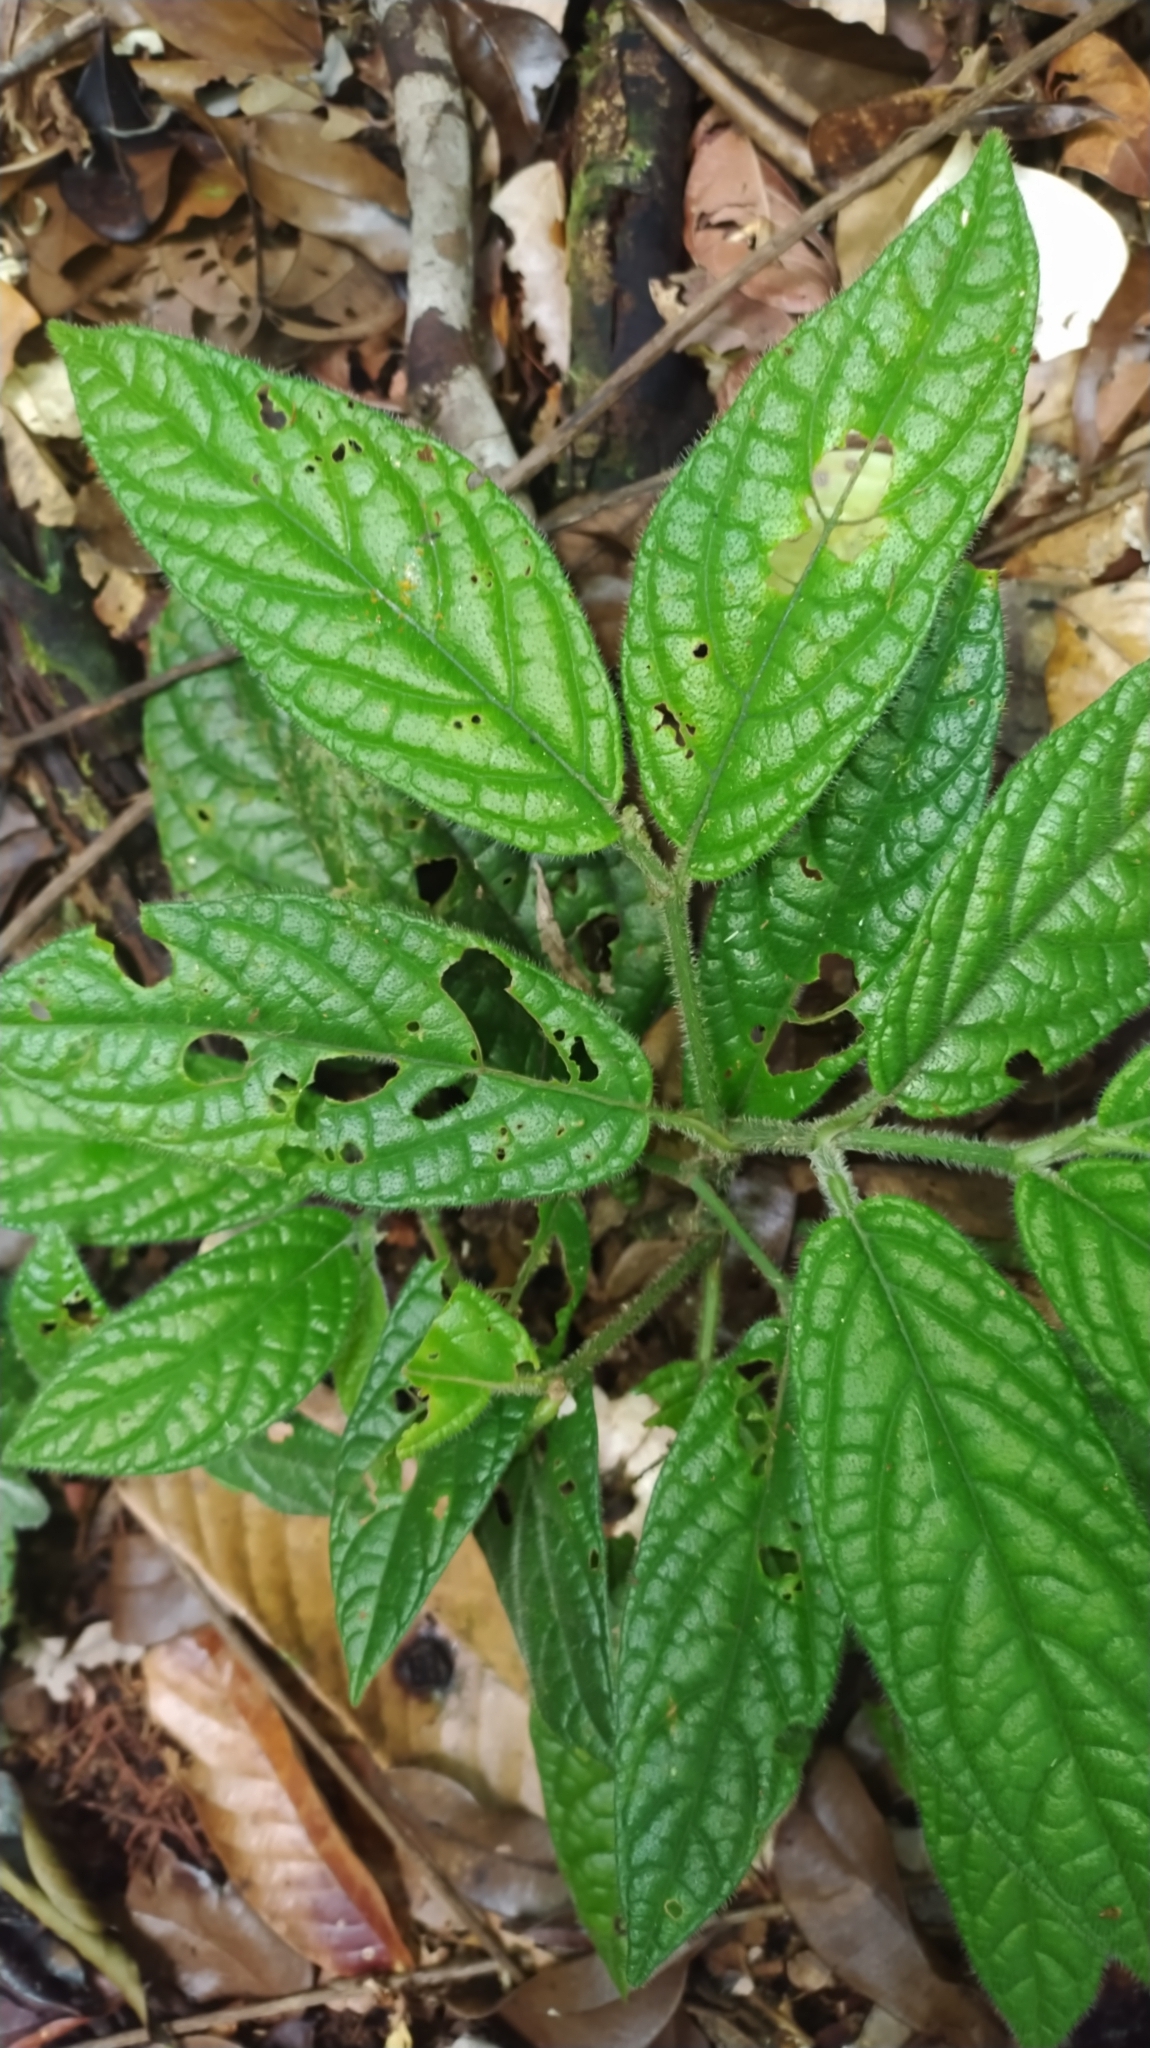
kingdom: Plantae
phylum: Tracheophyta
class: Magnoliopsida
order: Piperales
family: Piperaceae
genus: Piper
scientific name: Piper brownsbergense
